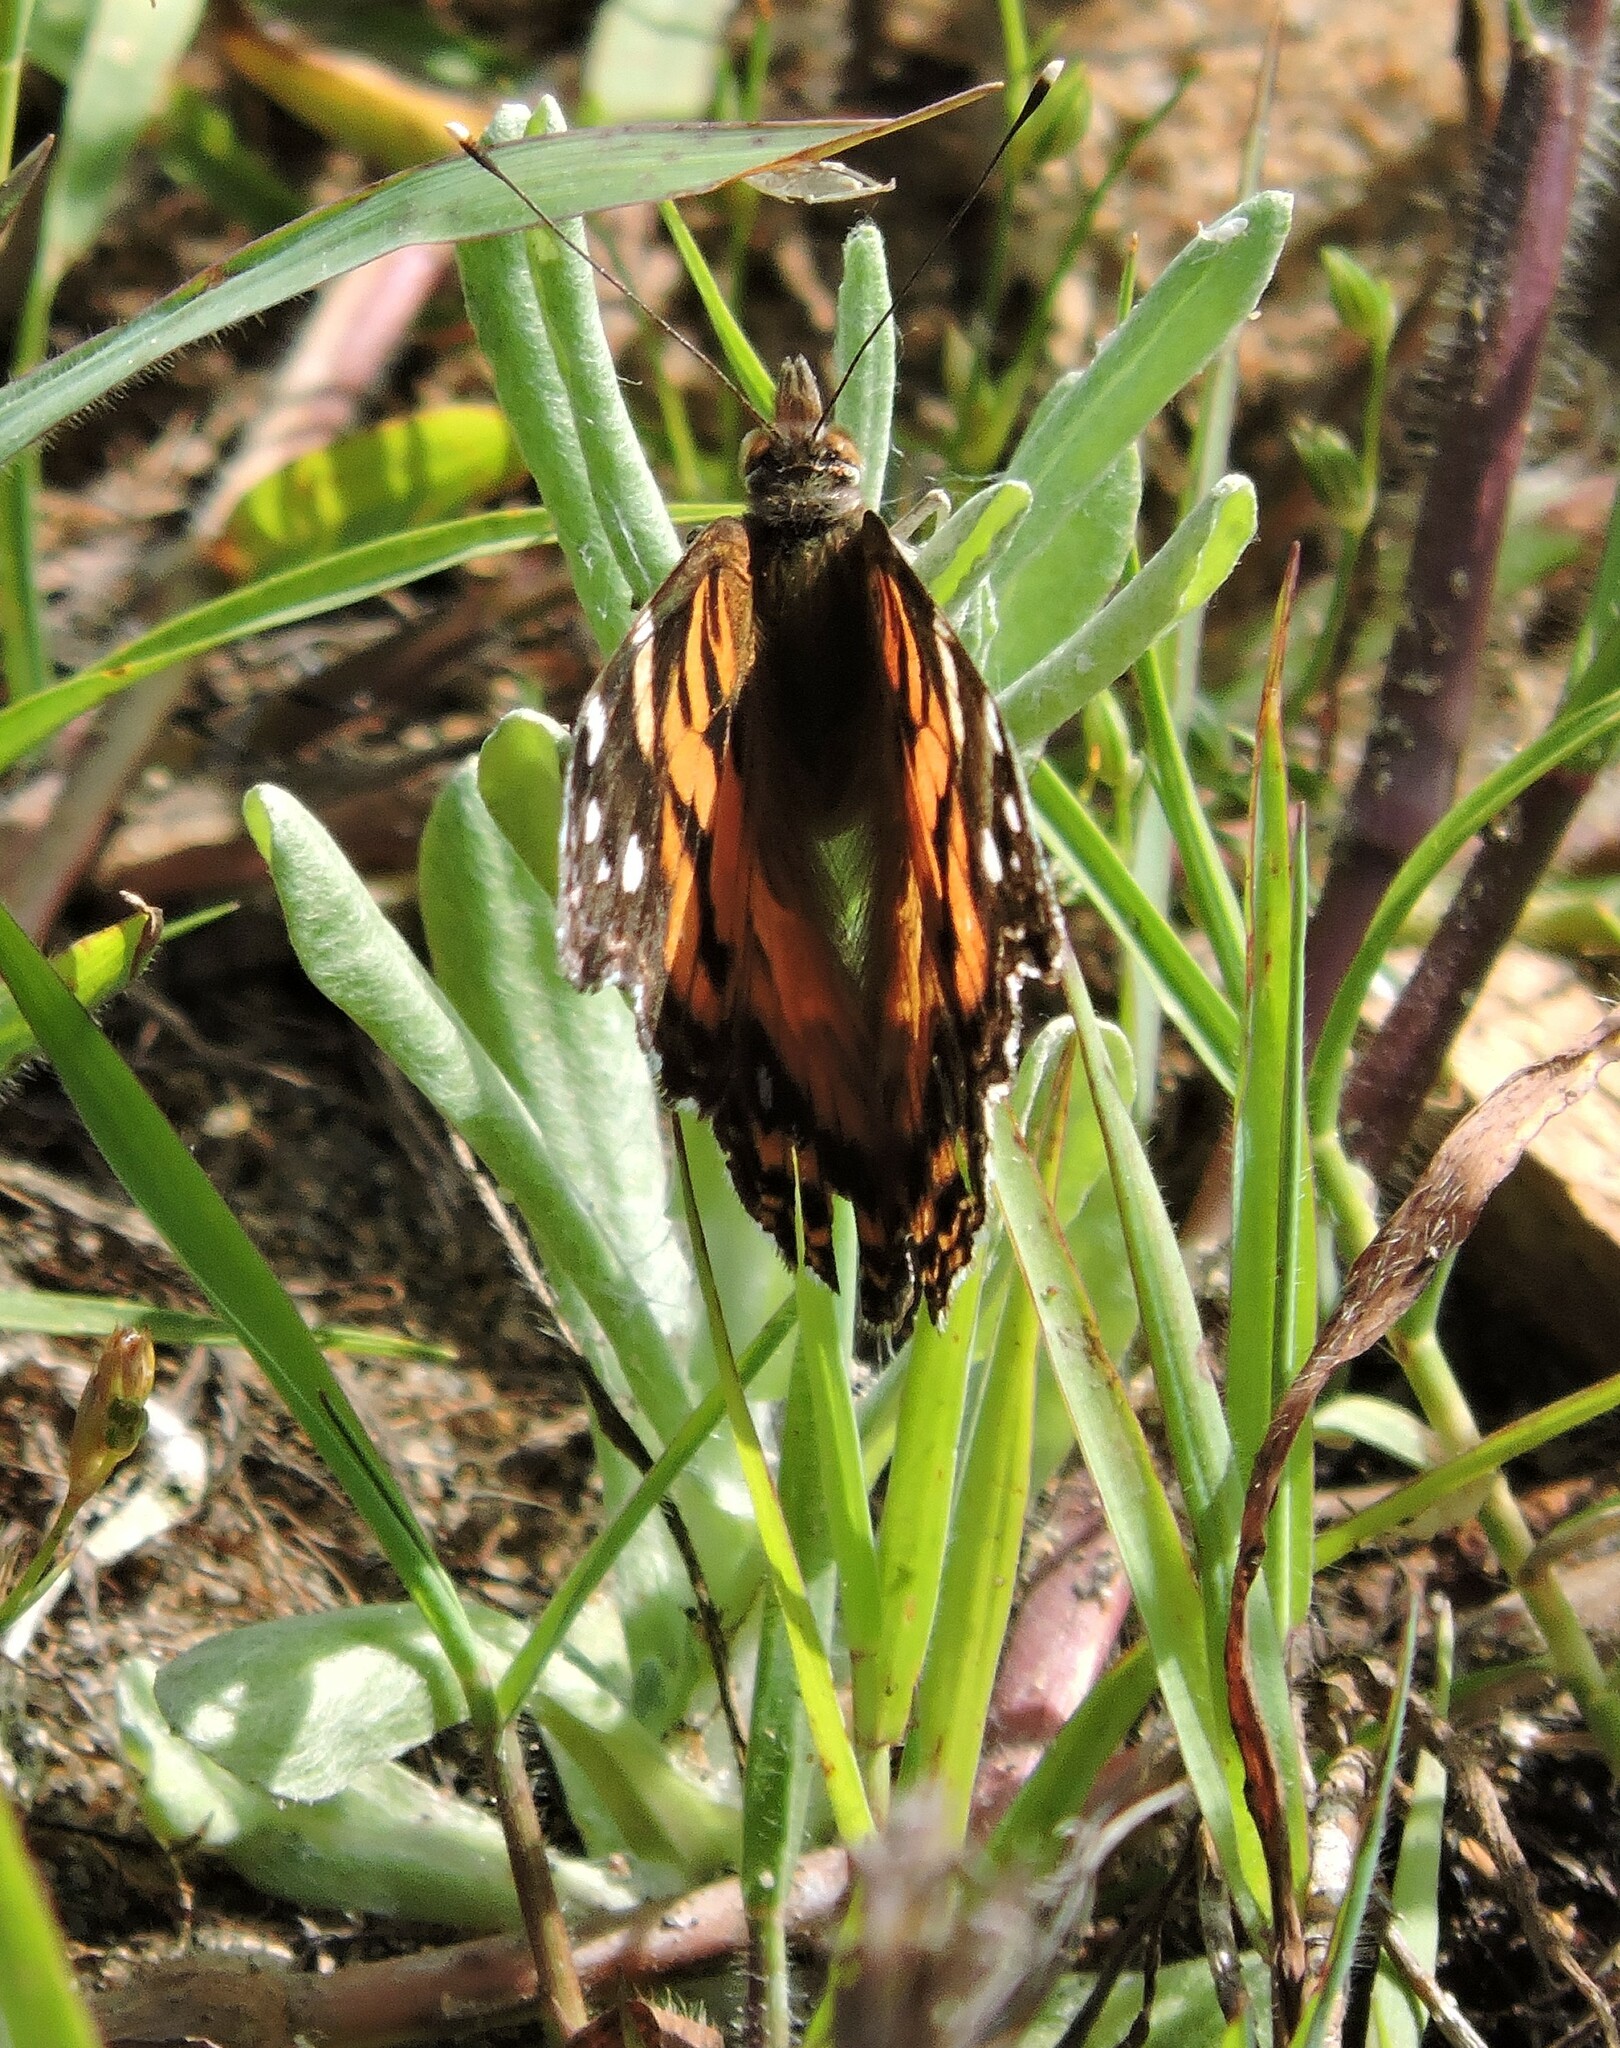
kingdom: Animalia
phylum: Arthropoda
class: Insecta
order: Lepidoptera
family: Nymphalidae
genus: Vanessa
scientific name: Vanessa virginiensis
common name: American lady
